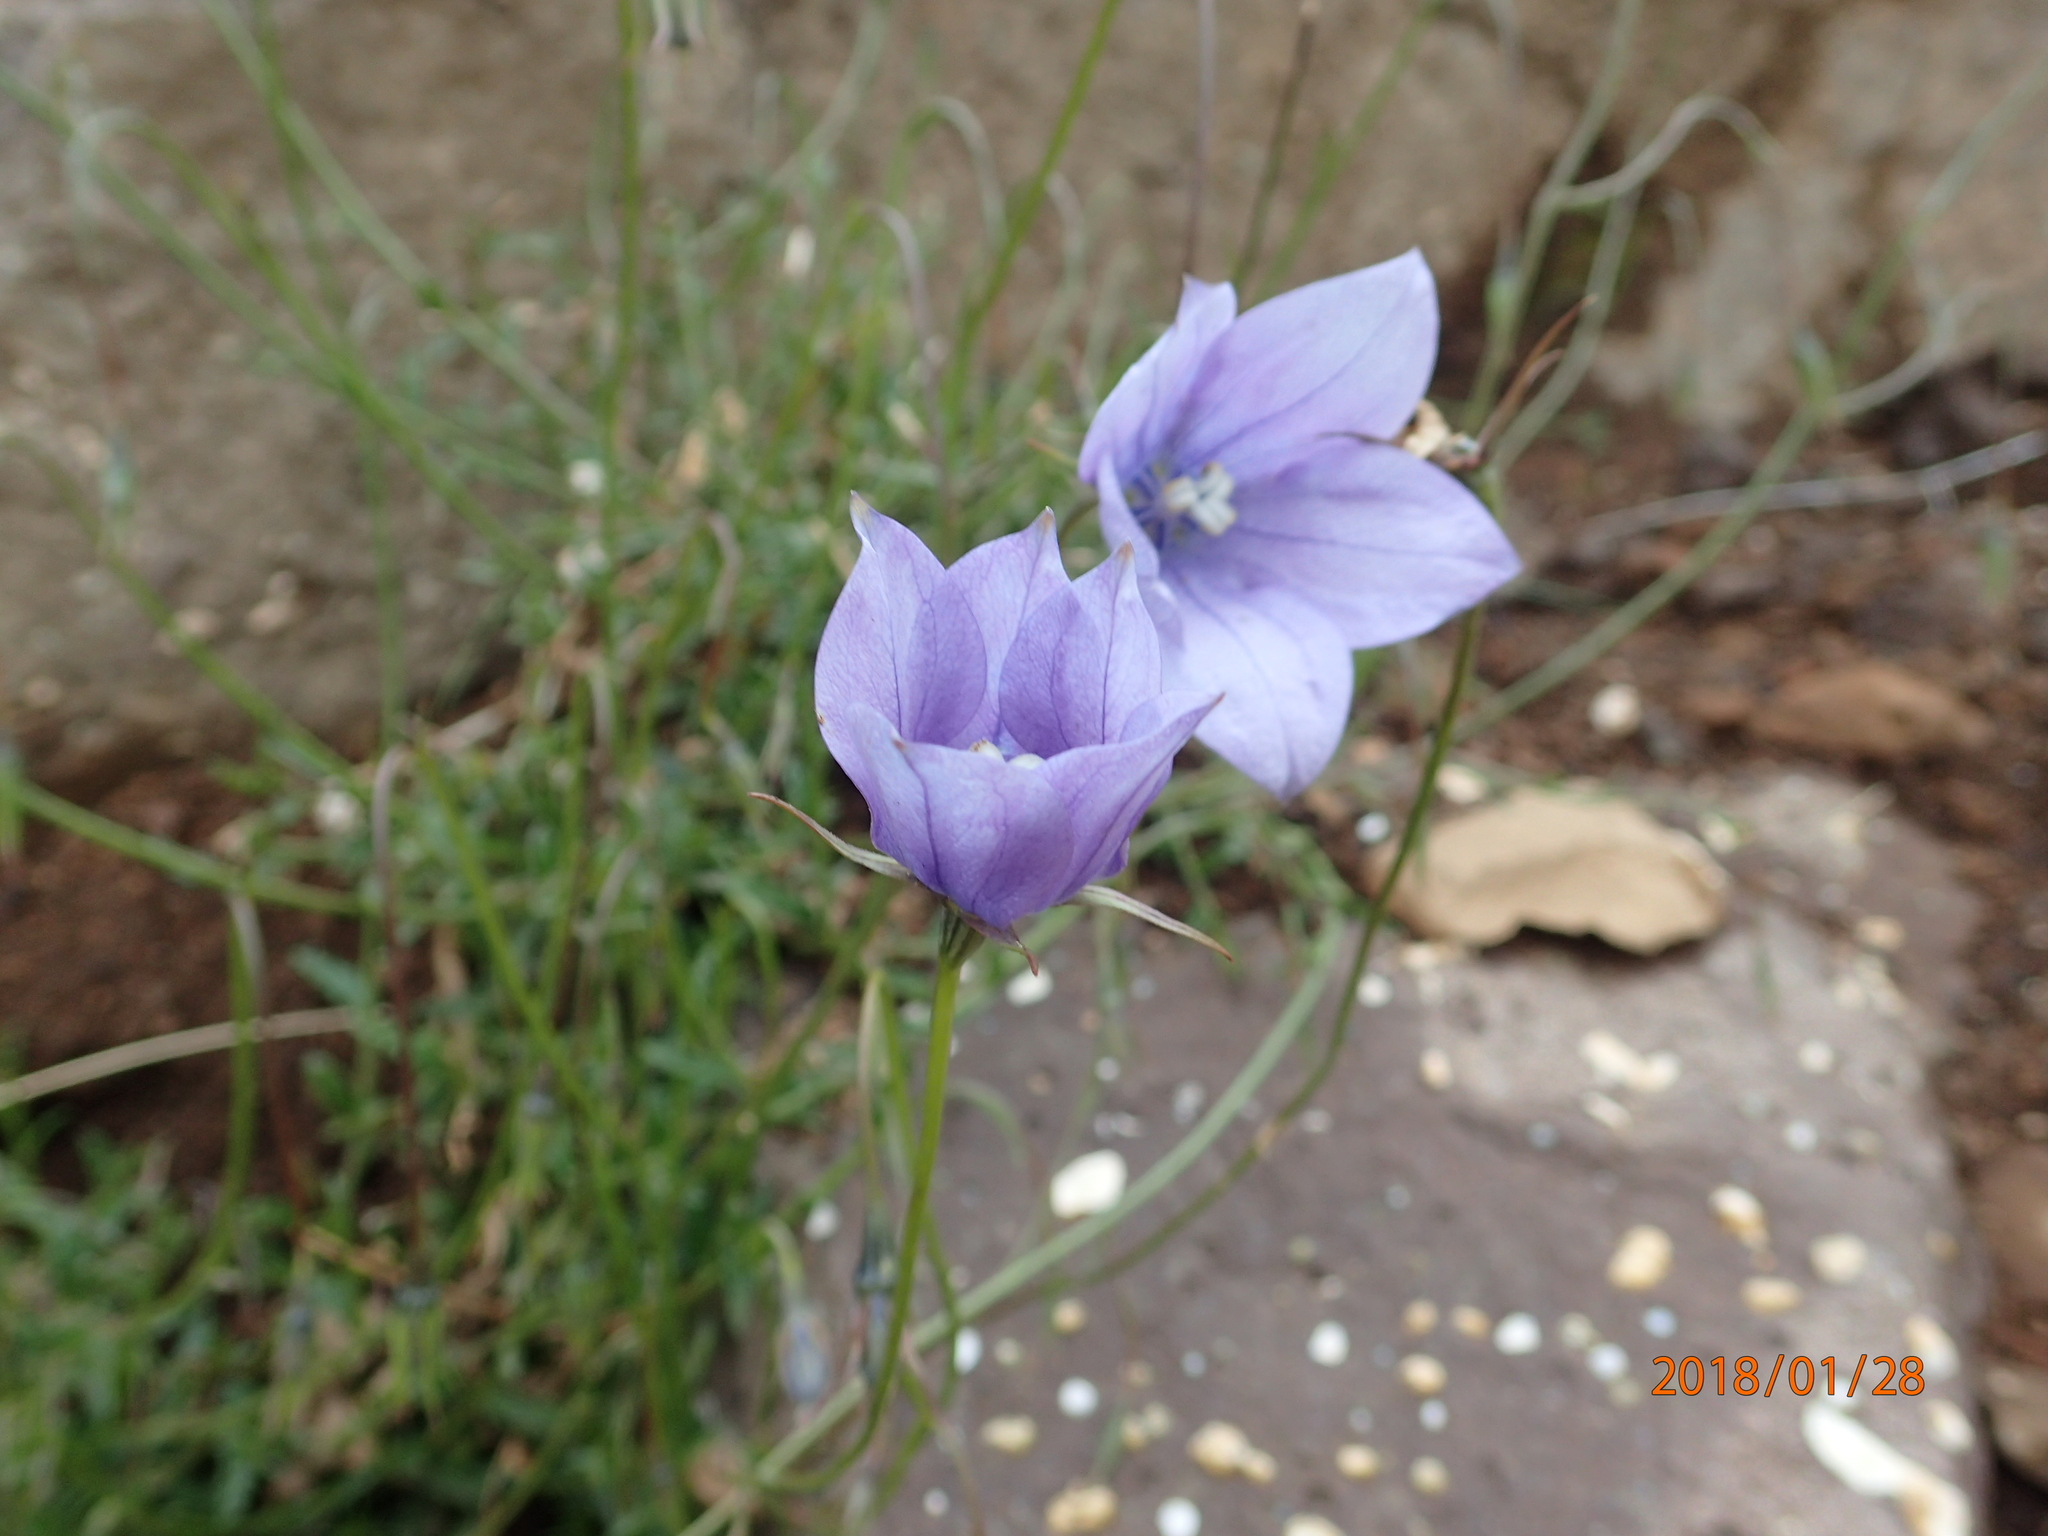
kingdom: Plantae
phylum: Tracheophyta
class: Magnoliopsida
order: Asterales
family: Campanulaceae
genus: Wahlenbergia
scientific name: Wahlenbergia cuspidata
